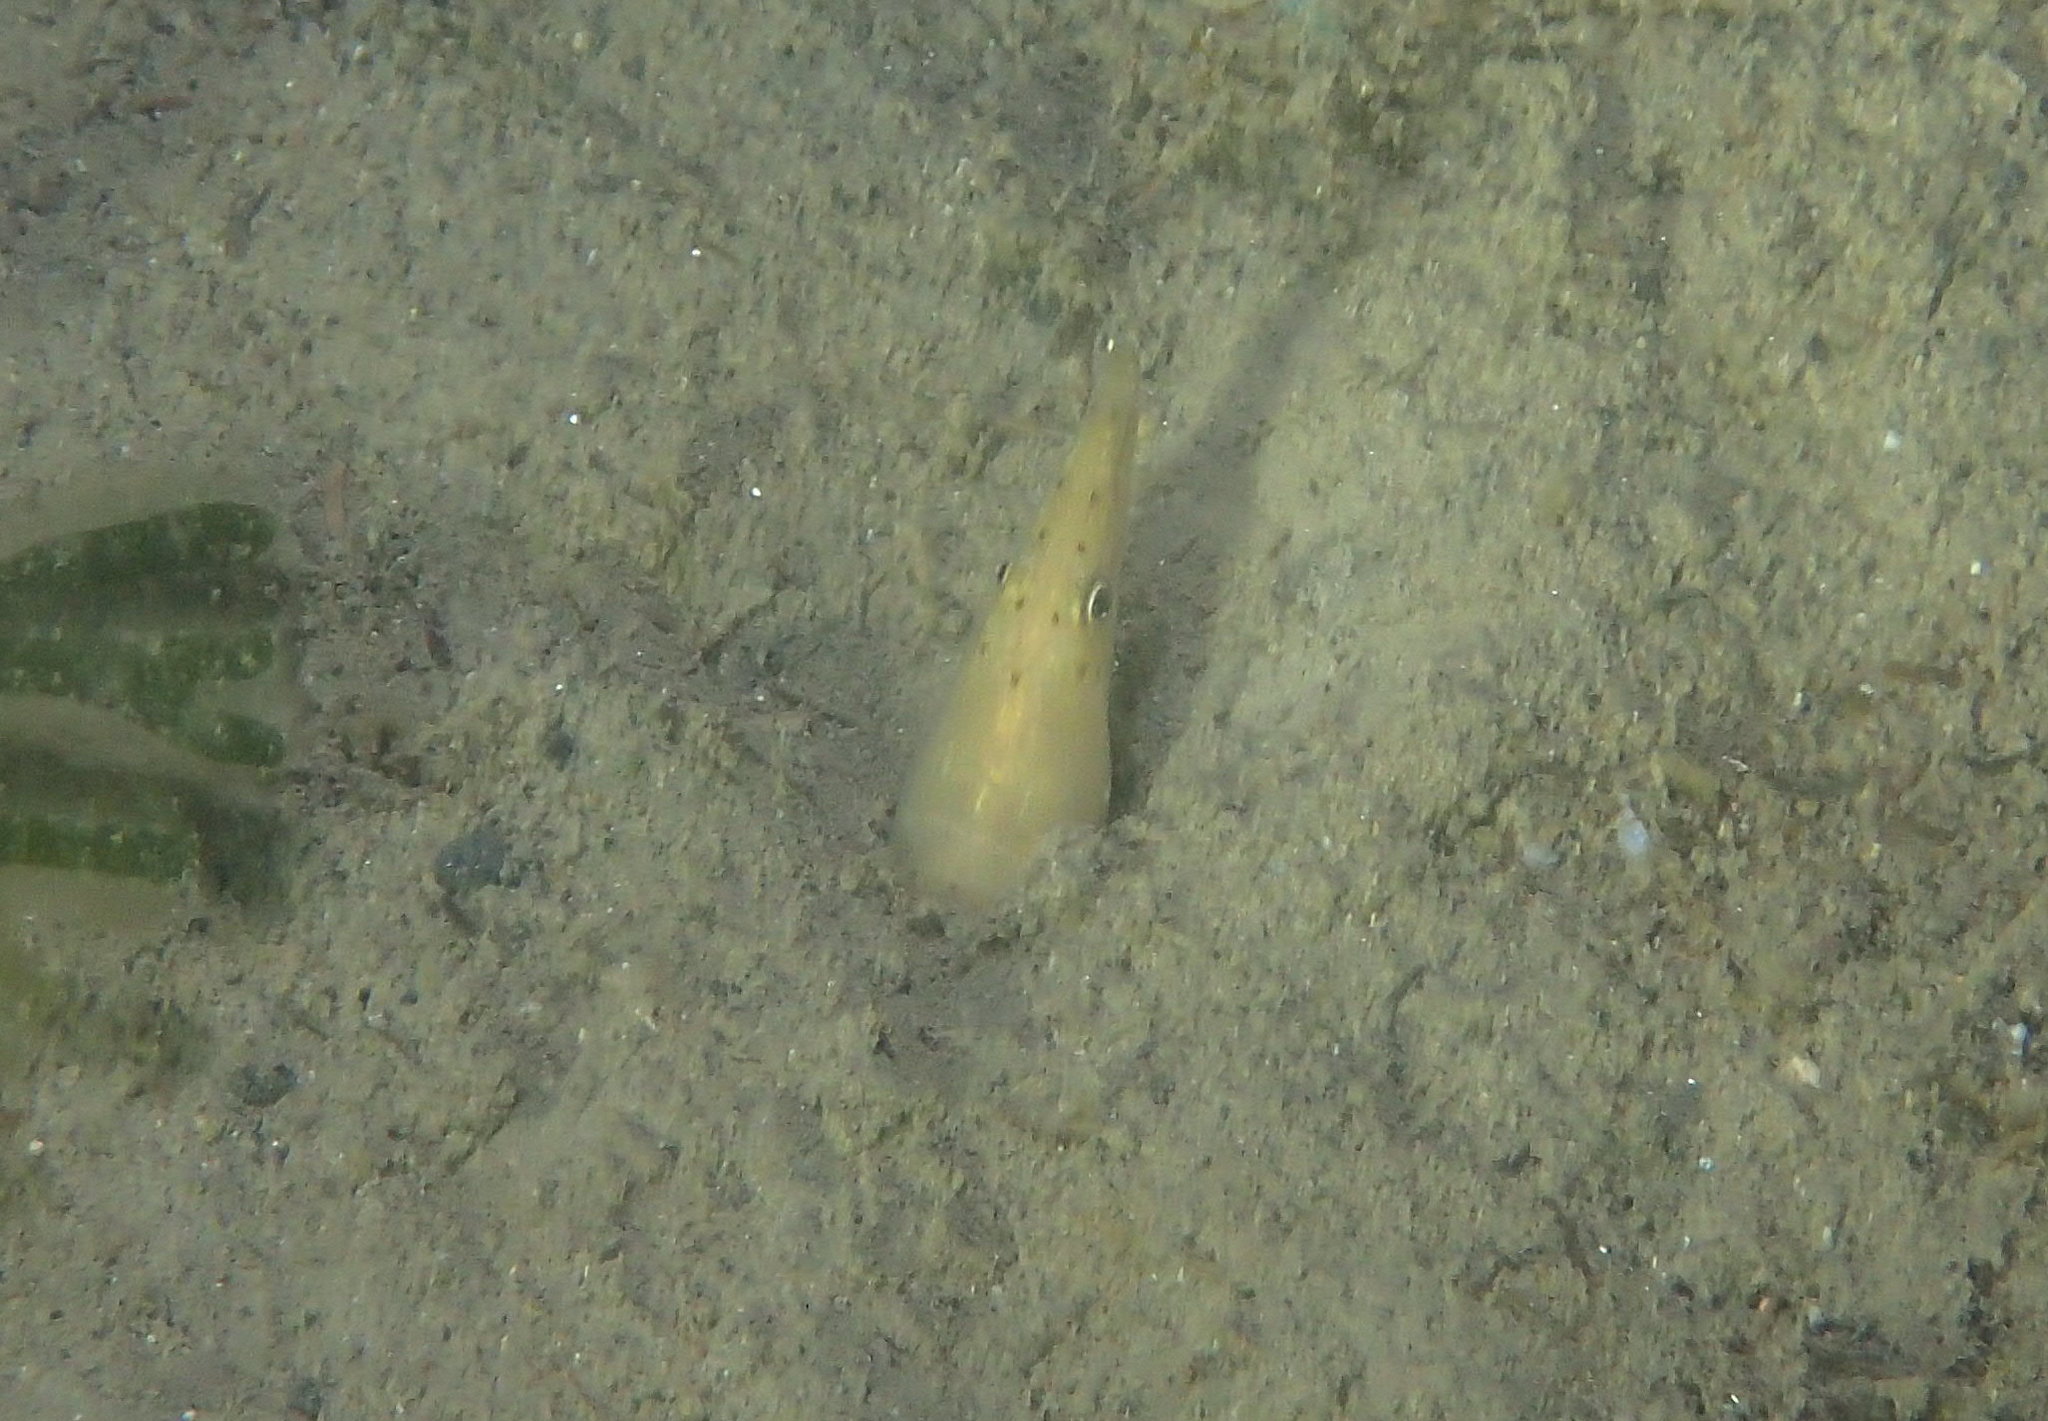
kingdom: Animalia
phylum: Chordata
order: Anguilliformes
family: Ophichthidae
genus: Ophisurus
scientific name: Ophisurus serpens
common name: Serpent eel
